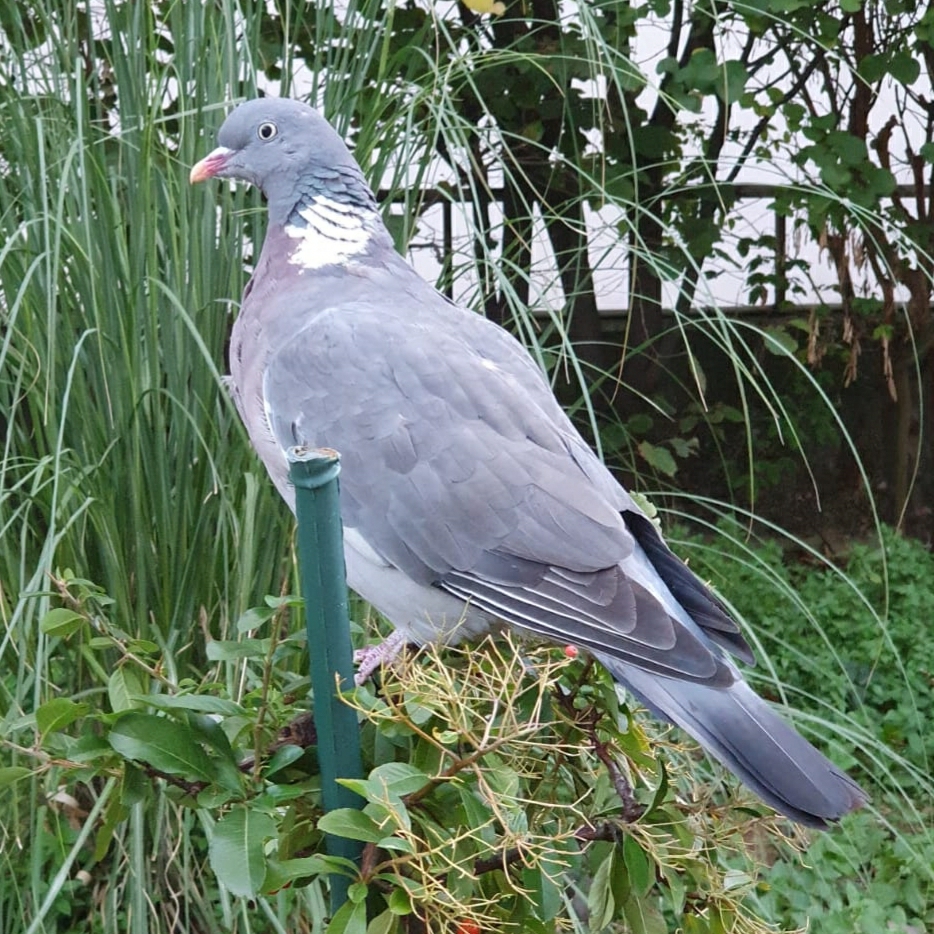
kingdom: Animalia
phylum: Chordata
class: Aves
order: Columbiformes
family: Columbidae
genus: Columba
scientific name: Columba palumbus
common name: Common wood pigeon
